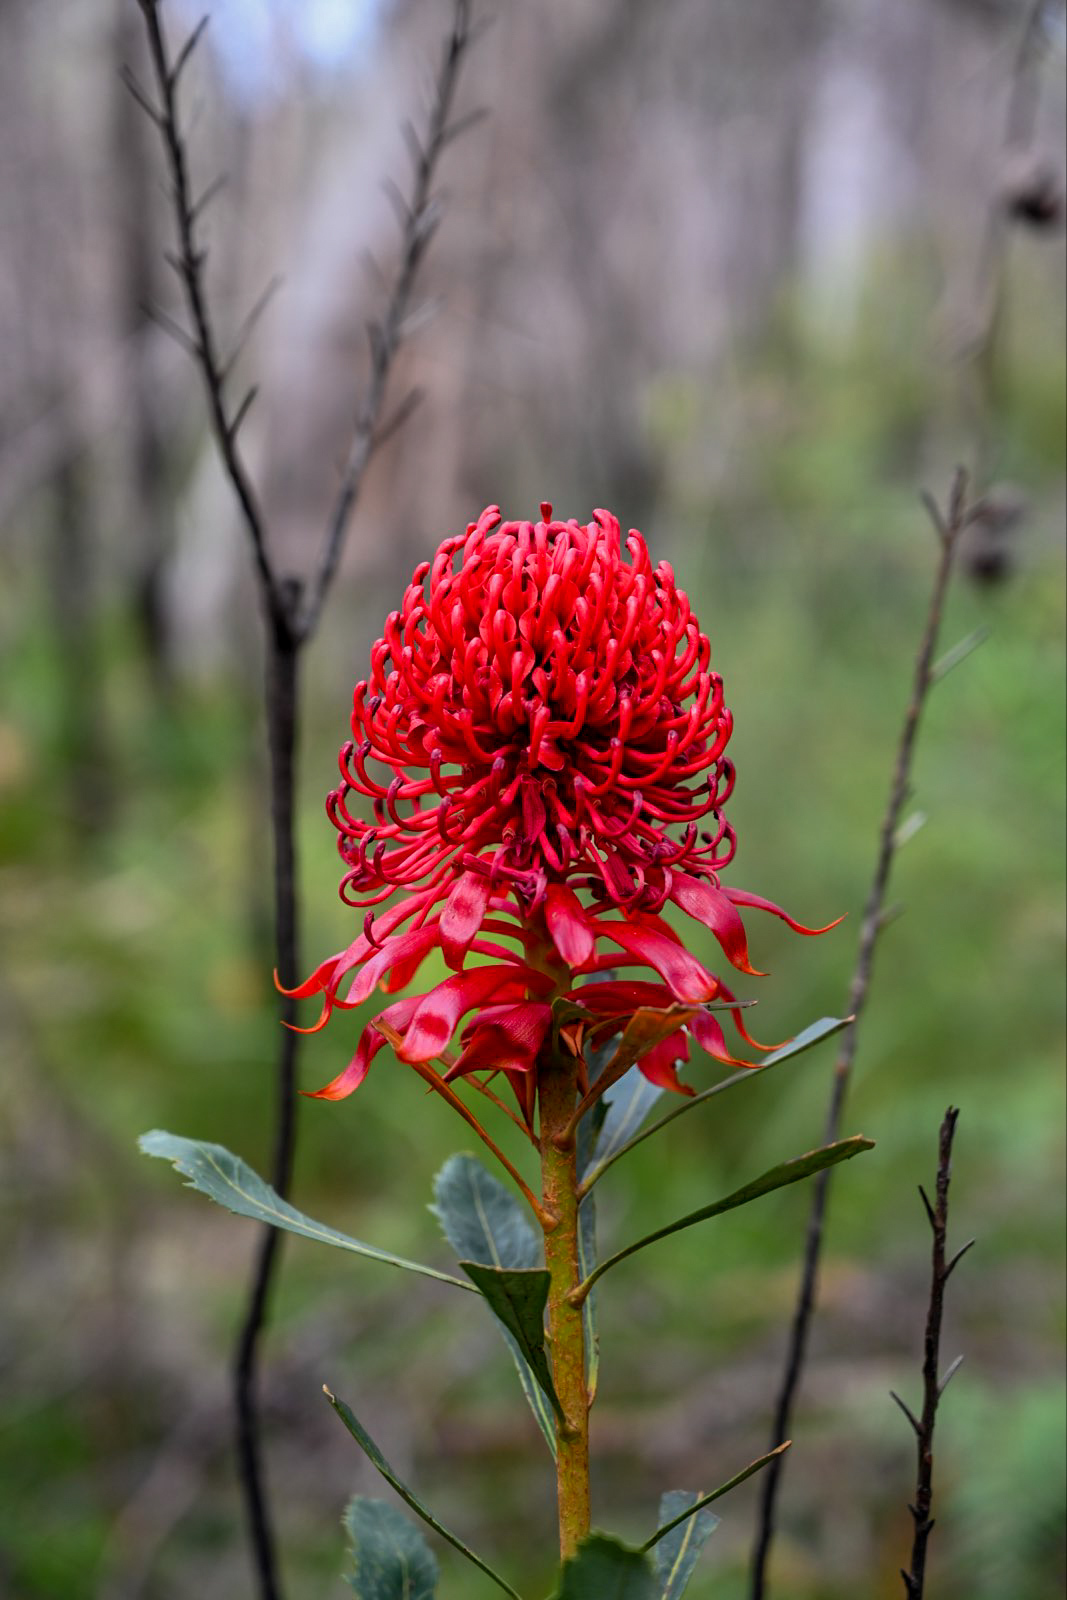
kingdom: Plantae
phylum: Tracheophyta
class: Magnoliopsida
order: Proteales
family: Proteaceae
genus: Telopea
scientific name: Telopea speciosissima
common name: New south wales waratah
